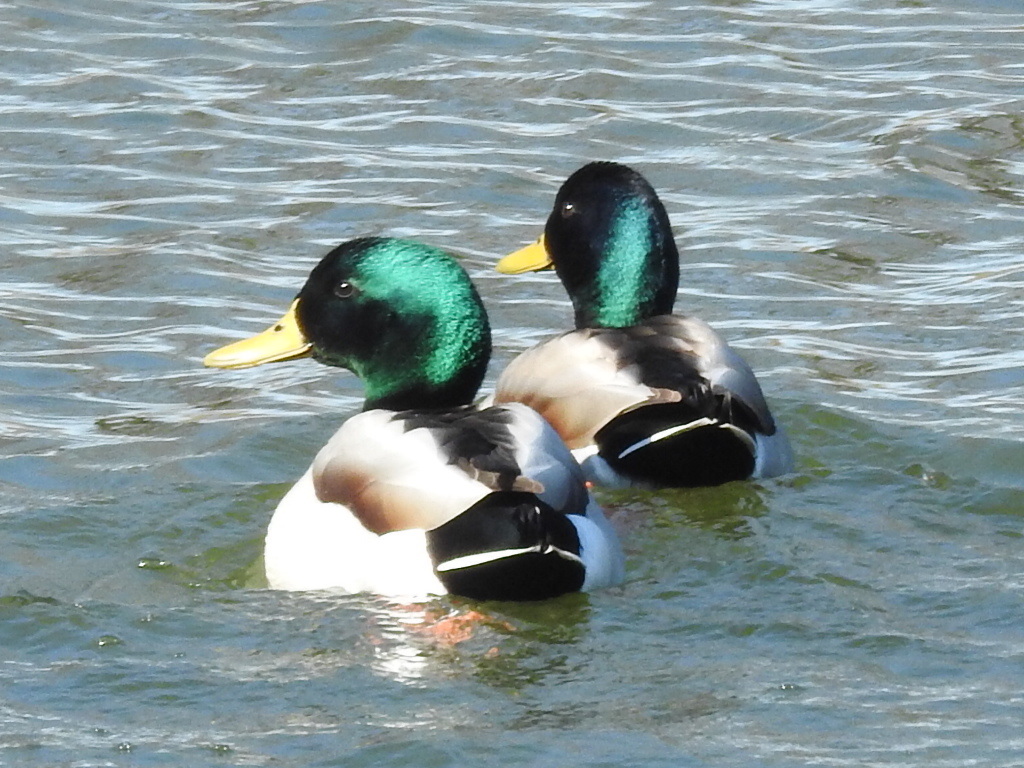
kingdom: Animalia
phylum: Chordata
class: Aves
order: Anseriformes
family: Anatidae
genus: Anas
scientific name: Anas platyrhynchos
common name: Mallard
